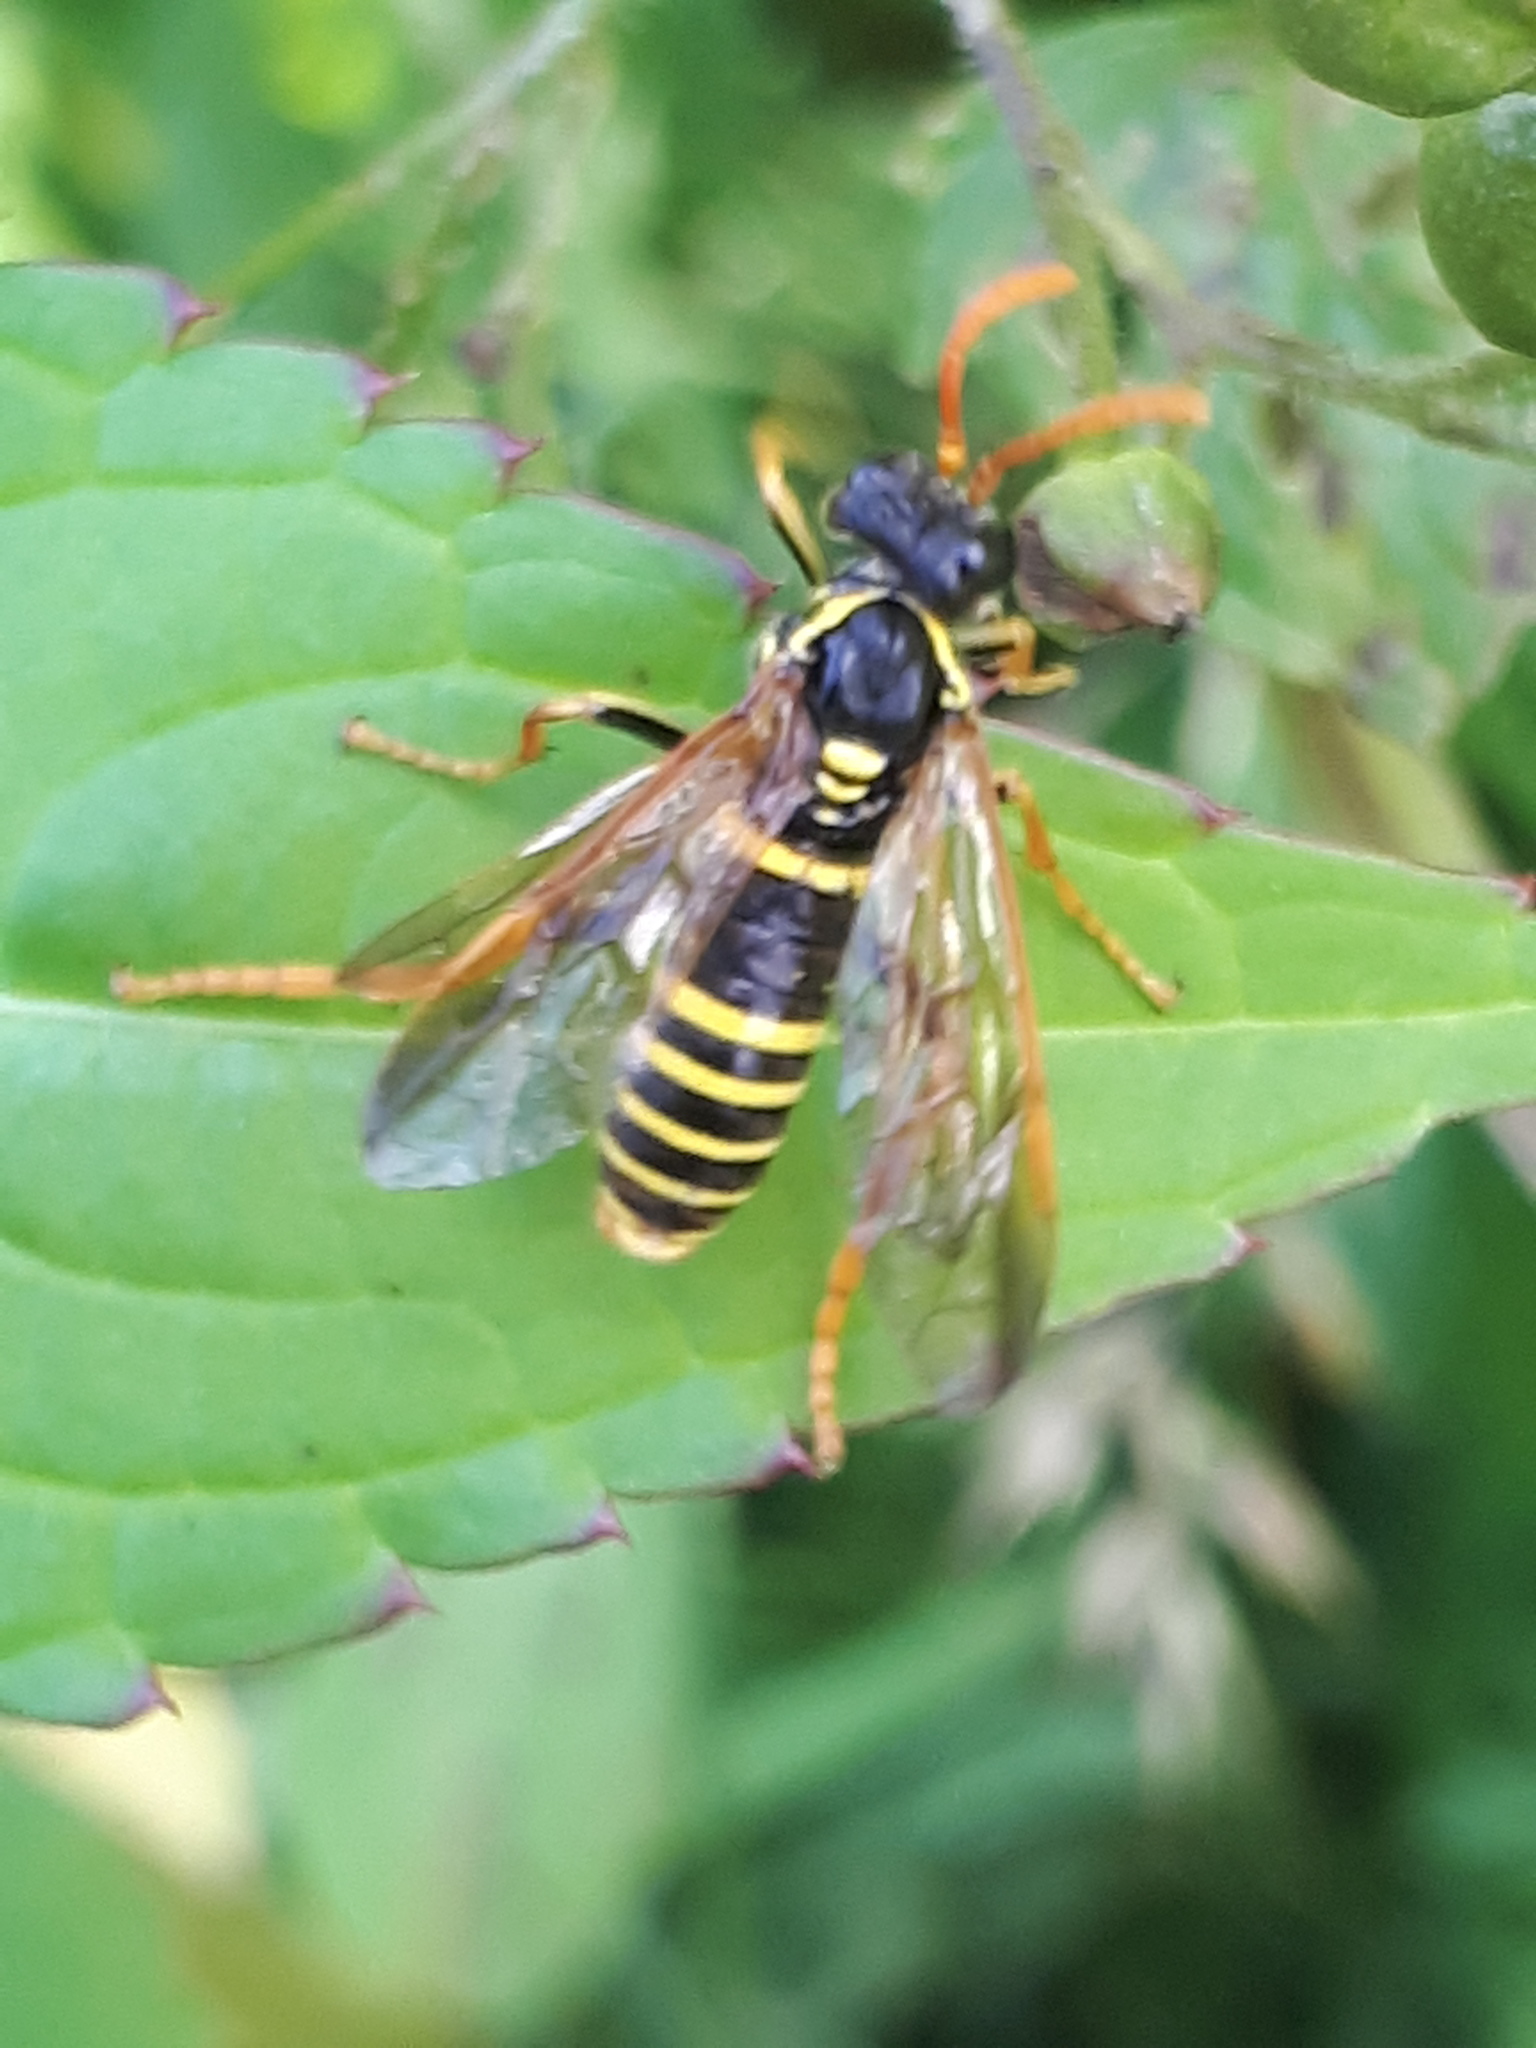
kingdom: Animalia
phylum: Arthropoda
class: Insecta
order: Hymenoptera
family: Tenthredinidae
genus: Tenthredo
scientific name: Tenthredo scrophulariae
